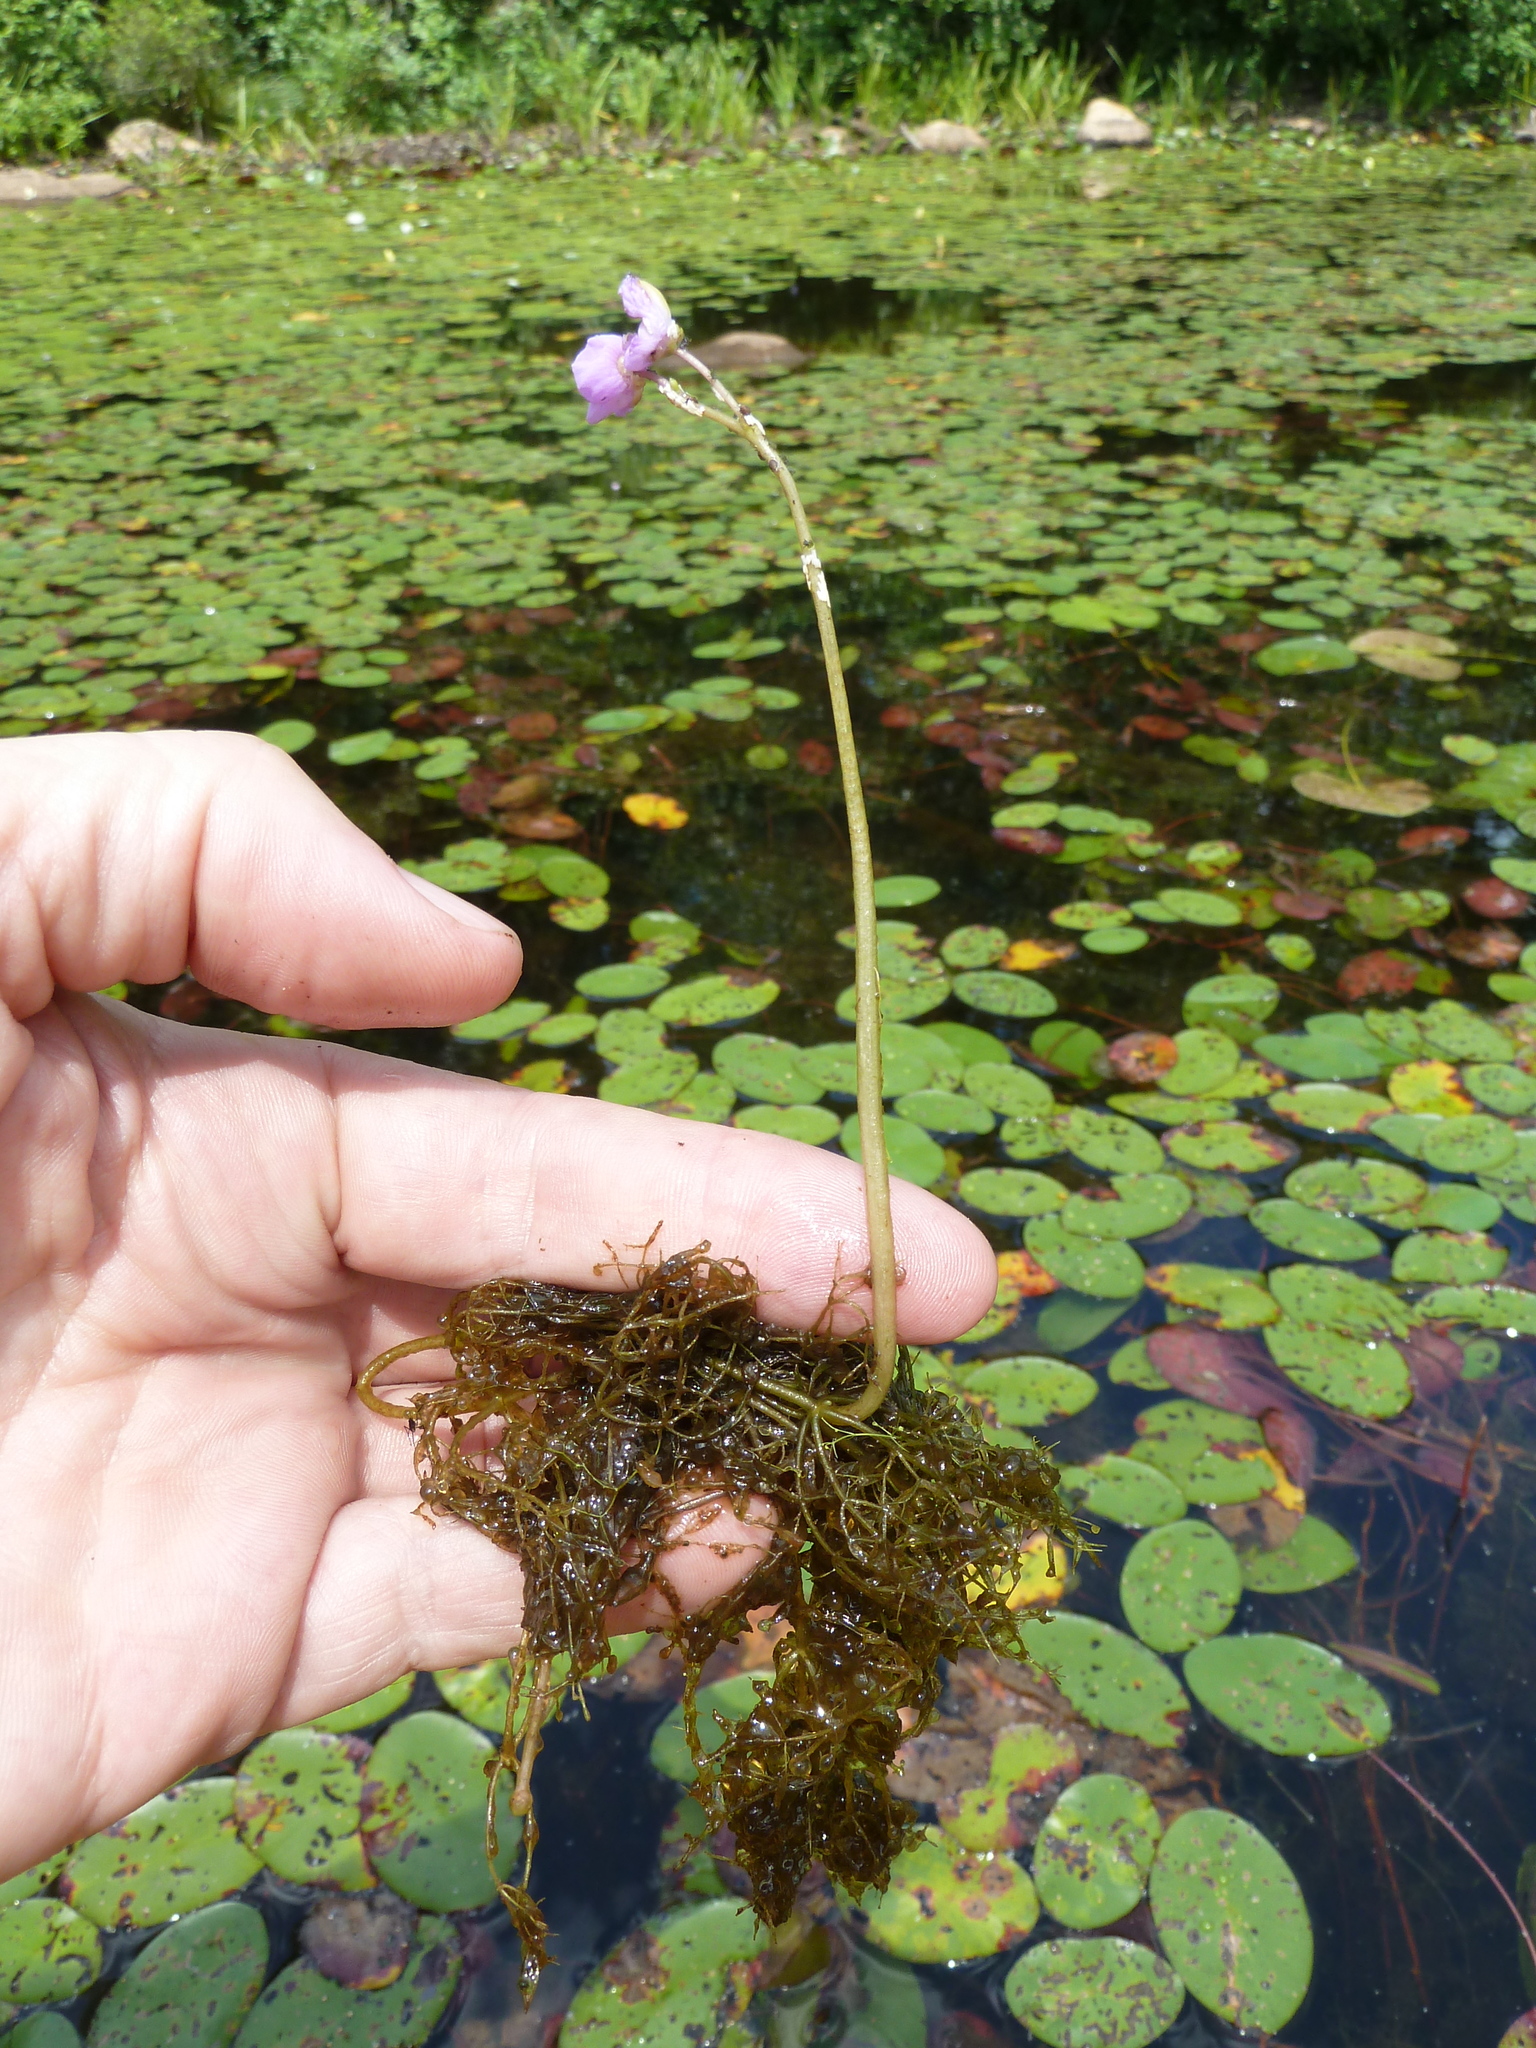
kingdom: Plantae
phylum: Tracheophyta
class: Magnoliopsida
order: Lamiales
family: Lentibulariaceae
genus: Utricularia
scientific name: Utricularia purpurea
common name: Eastern purple bladderwort
